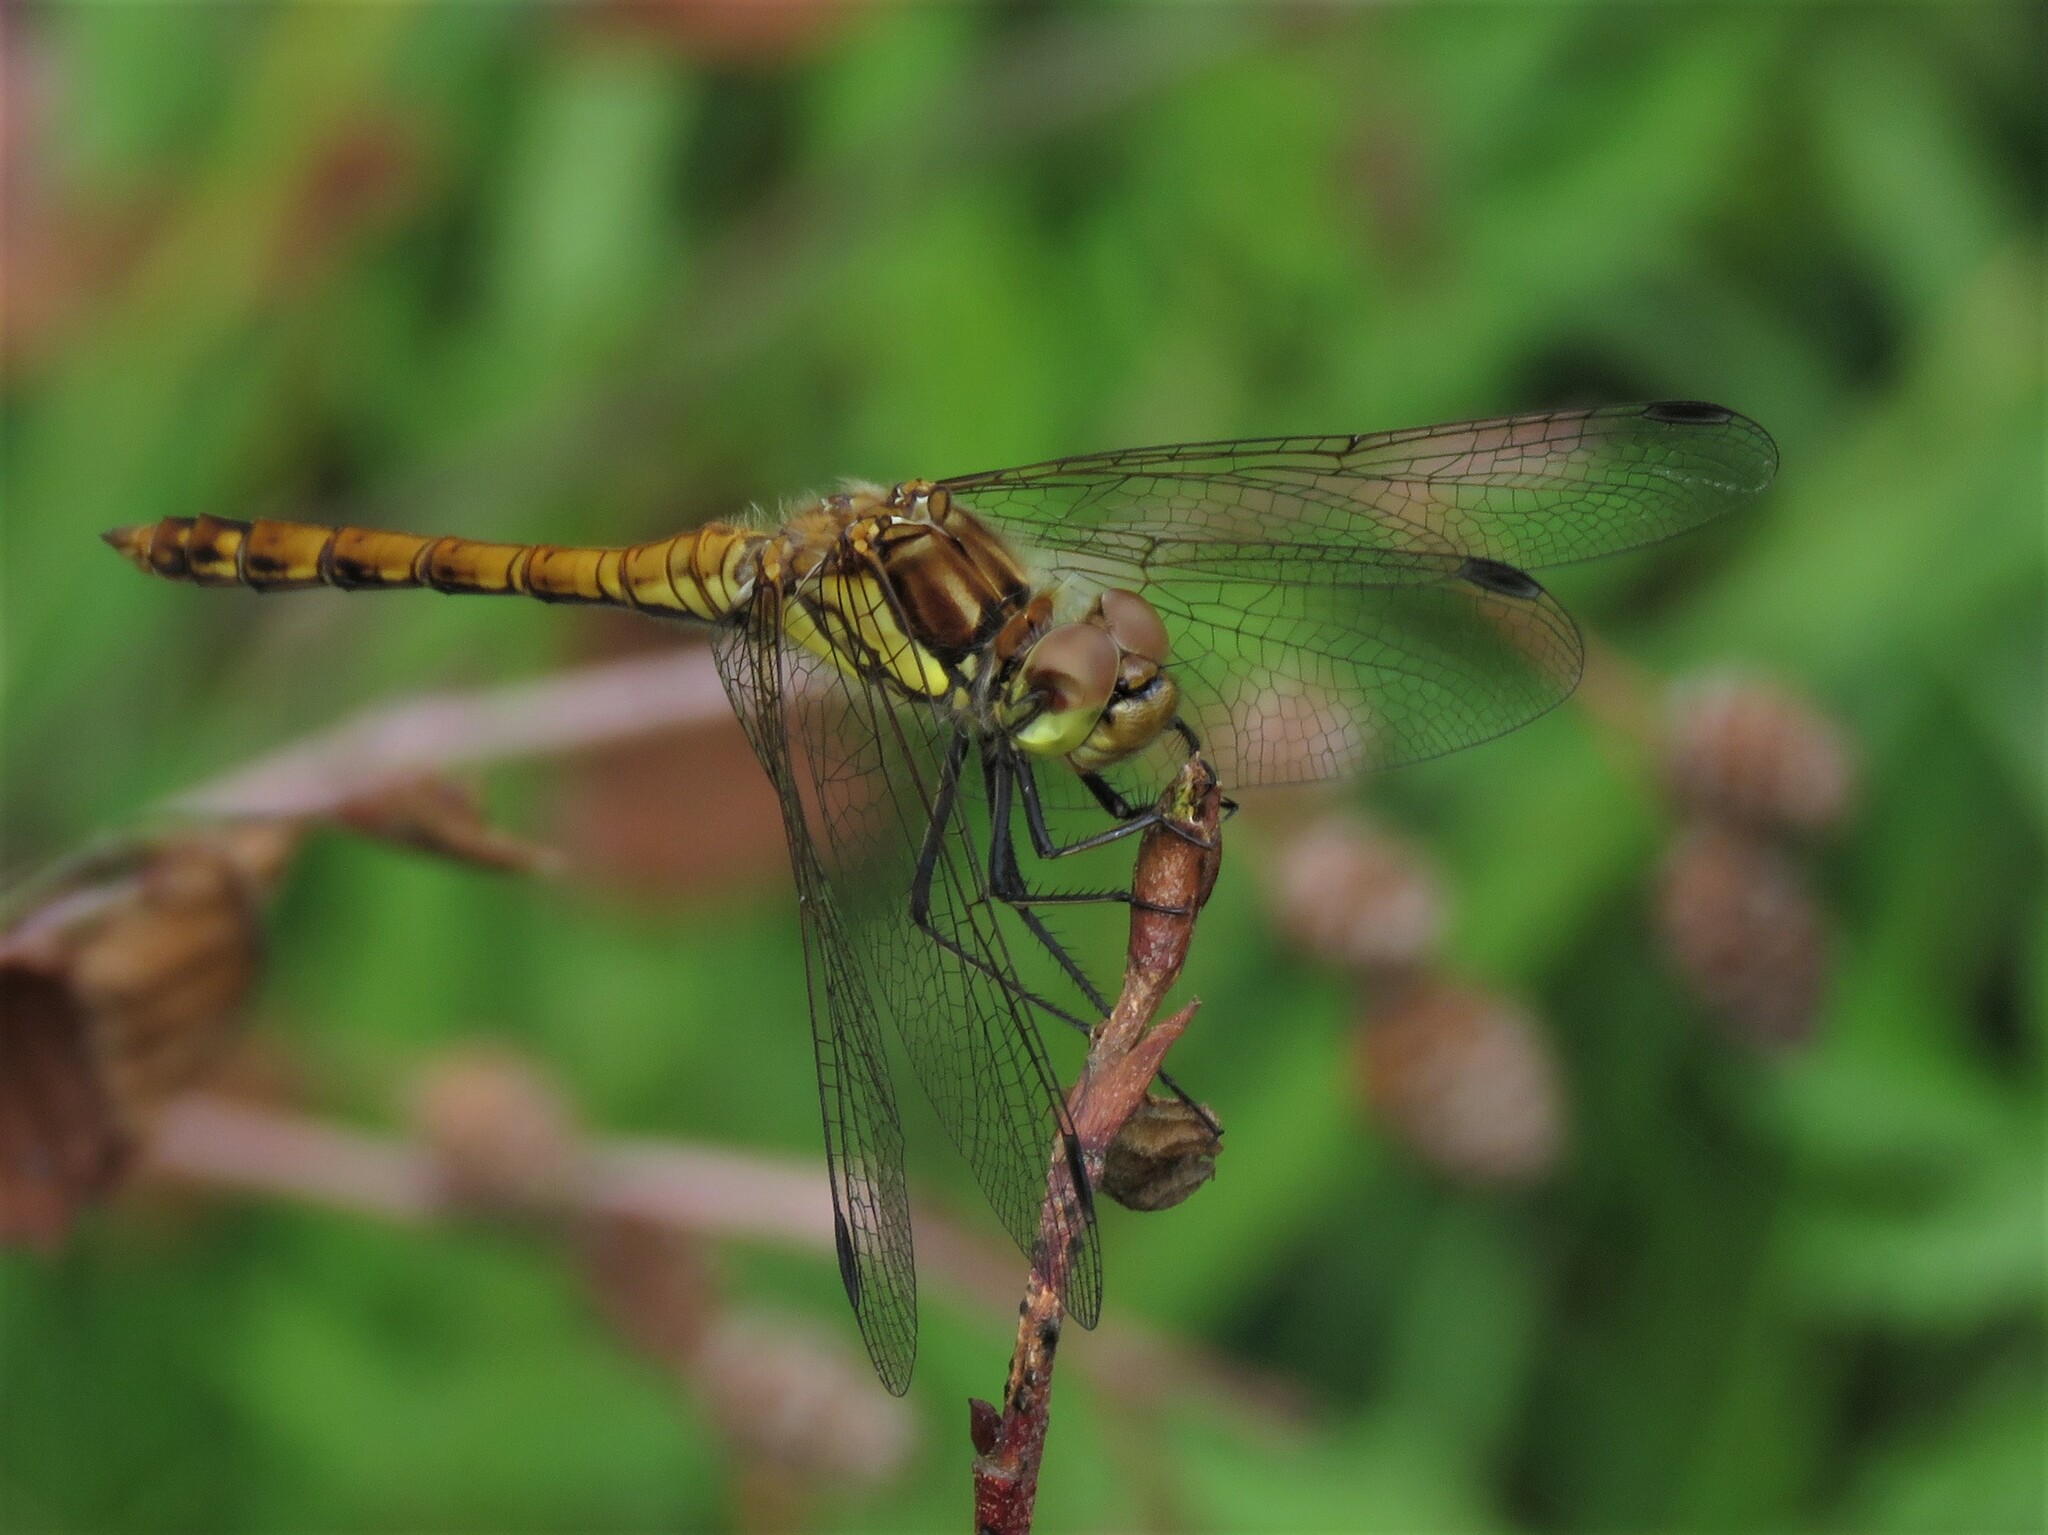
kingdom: Animalia
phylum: Arthropoda
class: Insecta
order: Odonata
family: Libellulidae
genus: Sympetrum
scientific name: Sympetrum striolatum
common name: Common darter
